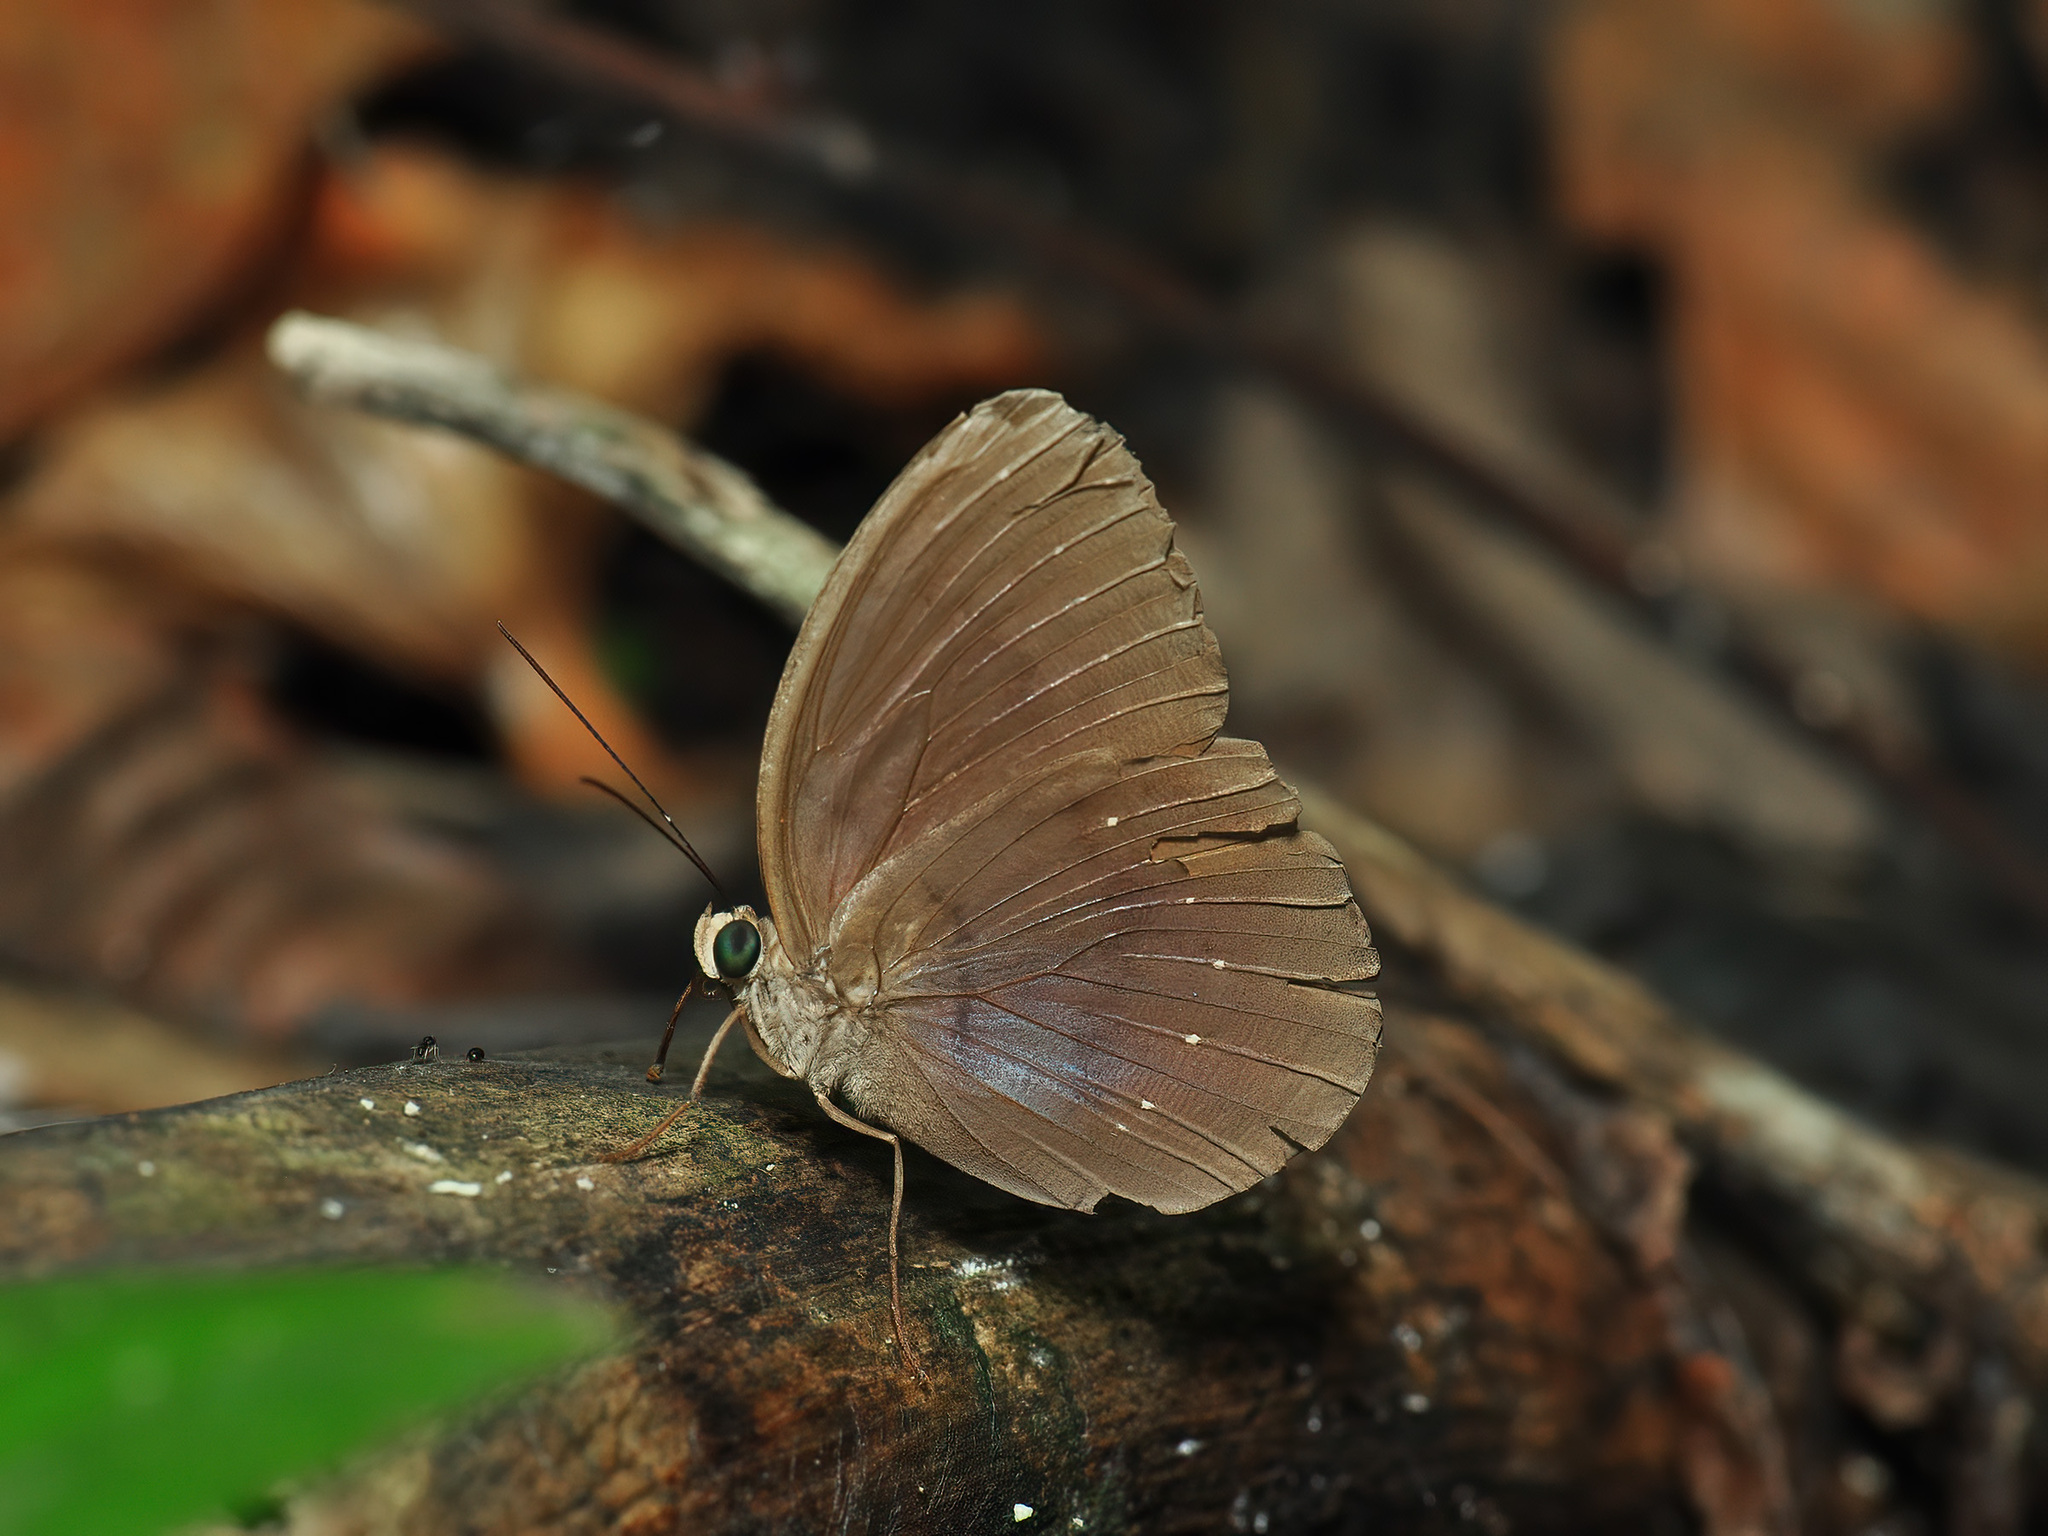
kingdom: Animalia
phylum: Arthropoda
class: Insecta
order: Lepidoptera
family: Nymphalidae
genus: Faunis
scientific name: Faunis canens
